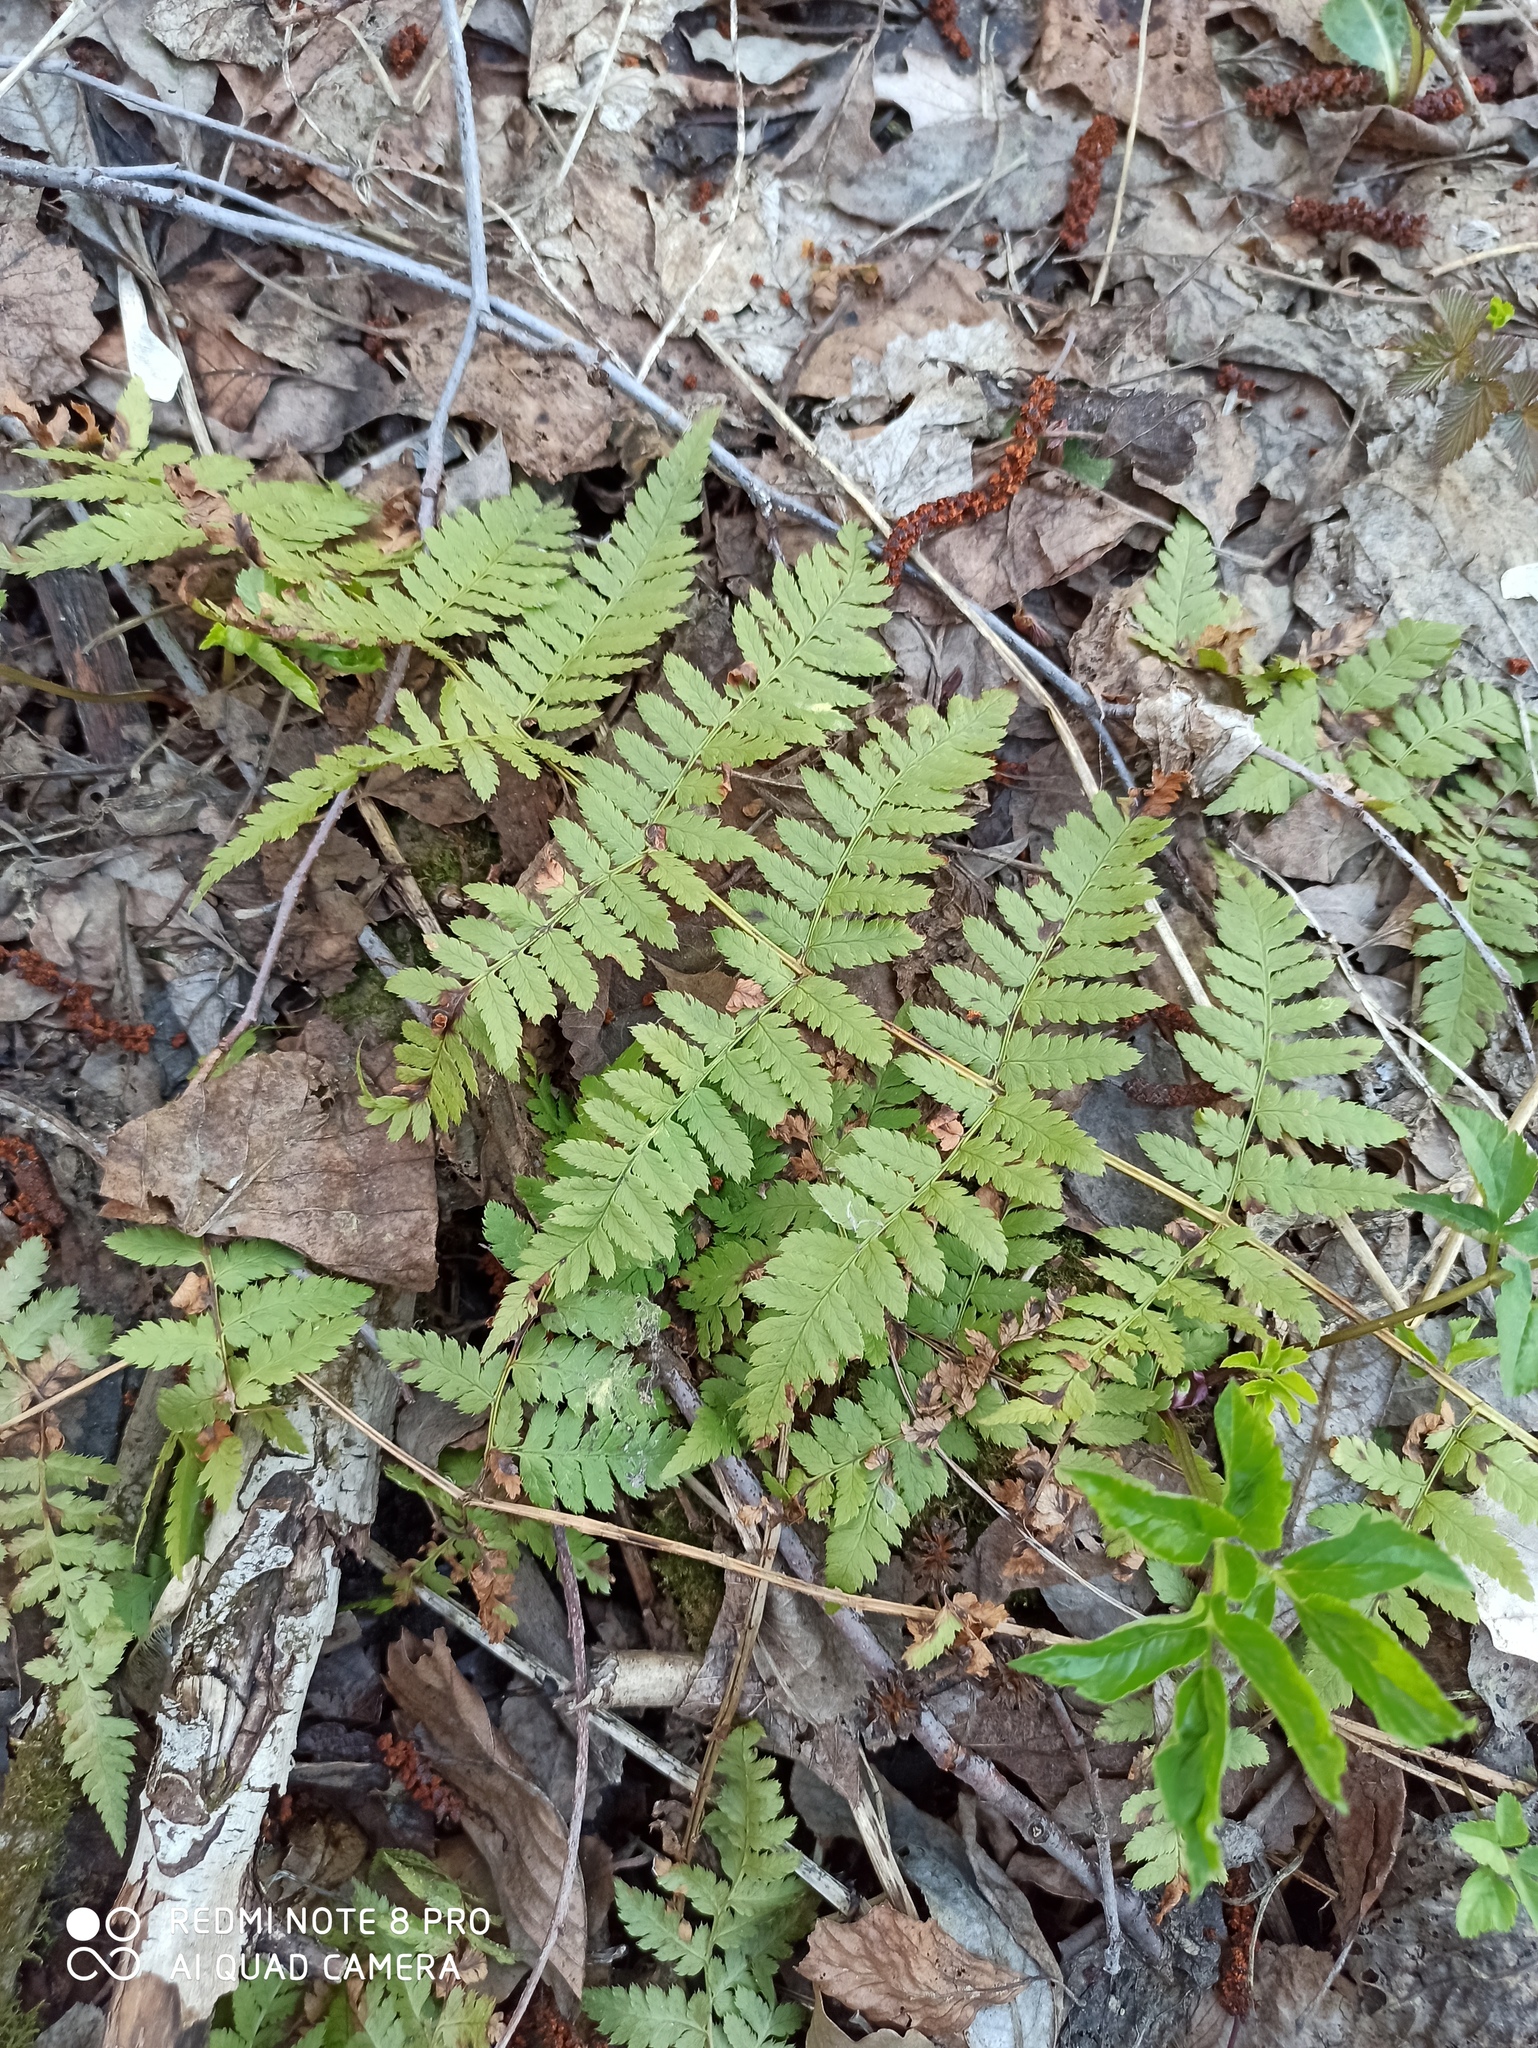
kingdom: Plantae
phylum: Tracheophyta
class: Polypodiopsida
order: Polypodiales
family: Dryopteridaceae
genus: Dryopteris
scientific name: Dryopteris carthusiana
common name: Narrow buckler-fern
